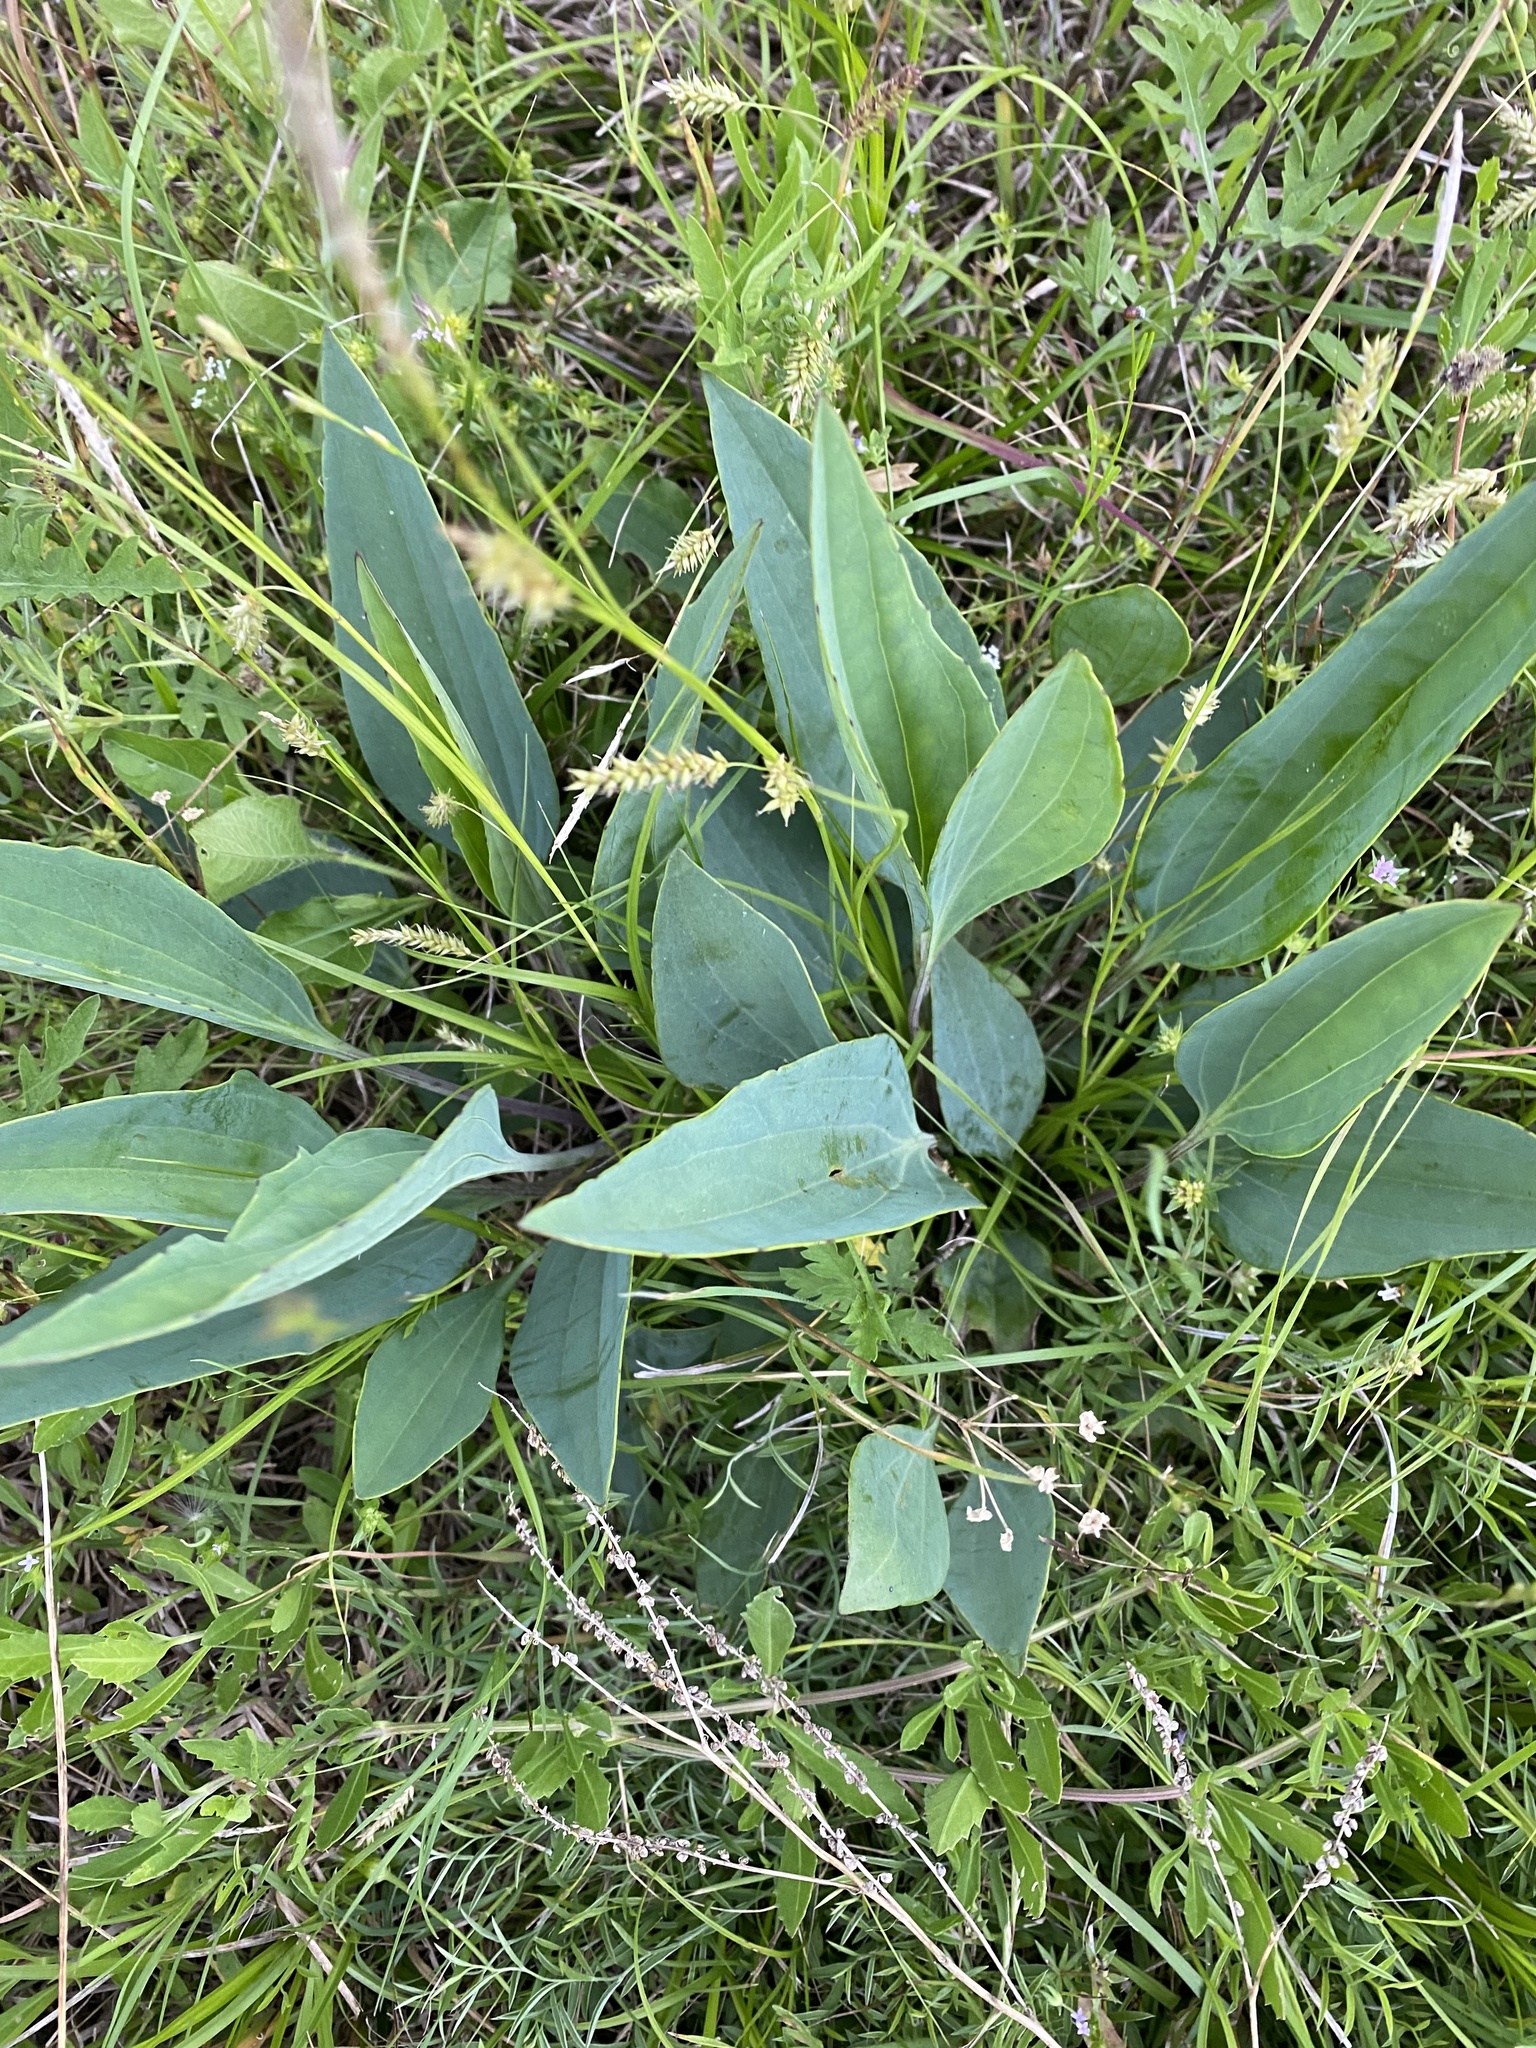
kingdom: Plantae
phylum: Tracheophyta
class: Magnoliopsida
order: Asterales
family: Asteraceae
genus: Arnoglossum
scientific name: Arnoglossum ovatum
